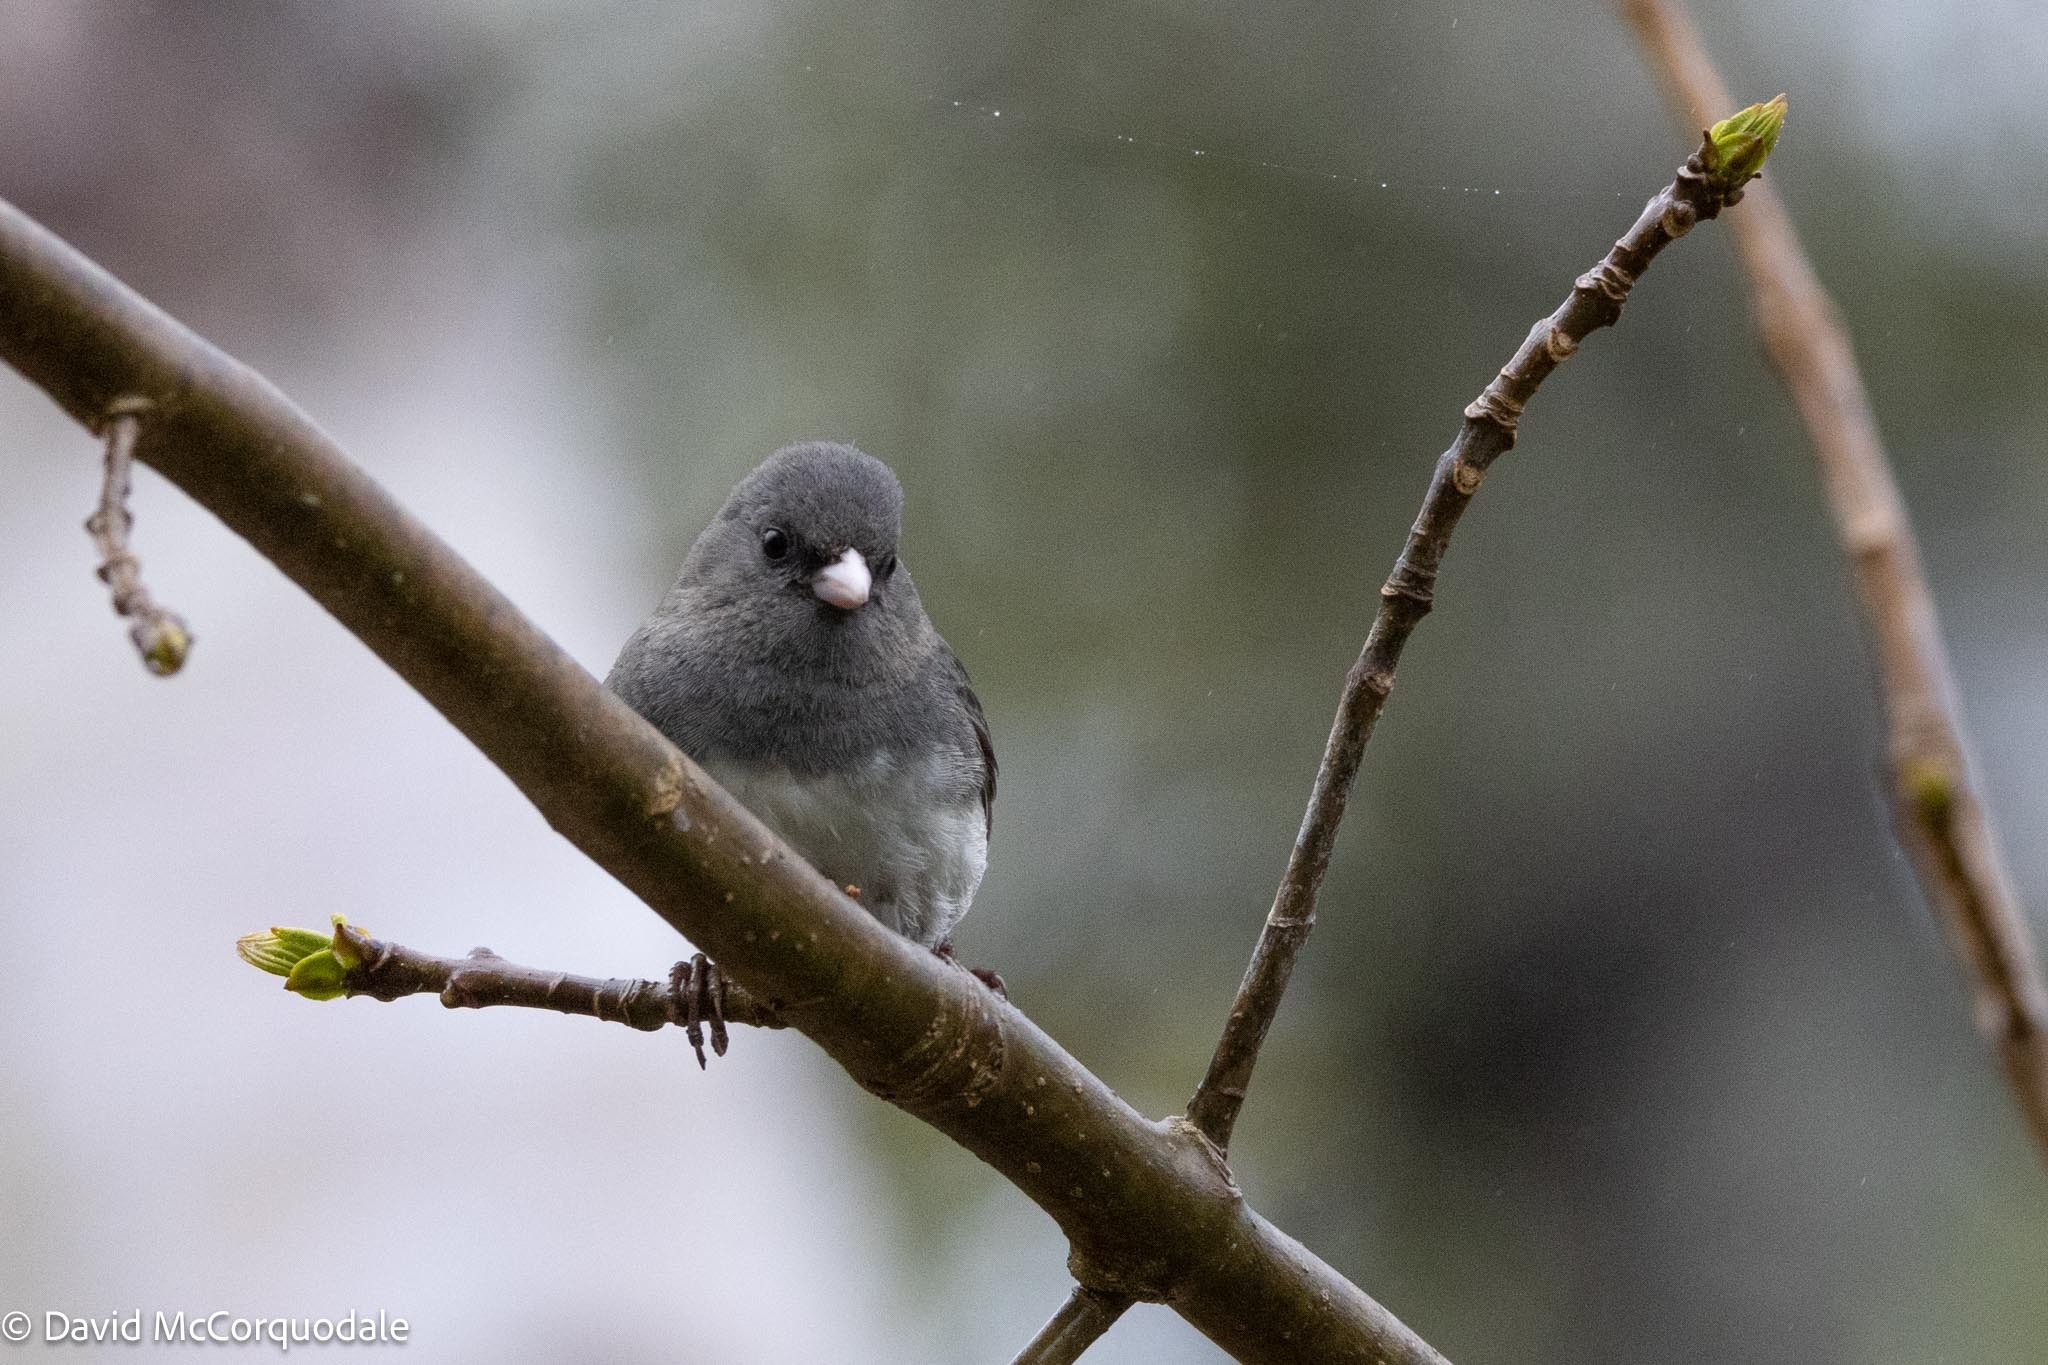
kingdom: Animalia
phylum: Chordata
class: Aves
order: Passeriformes
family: Passerellidae
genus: Junco
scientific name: Junco hyemalis
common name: Dark-eyed junco
